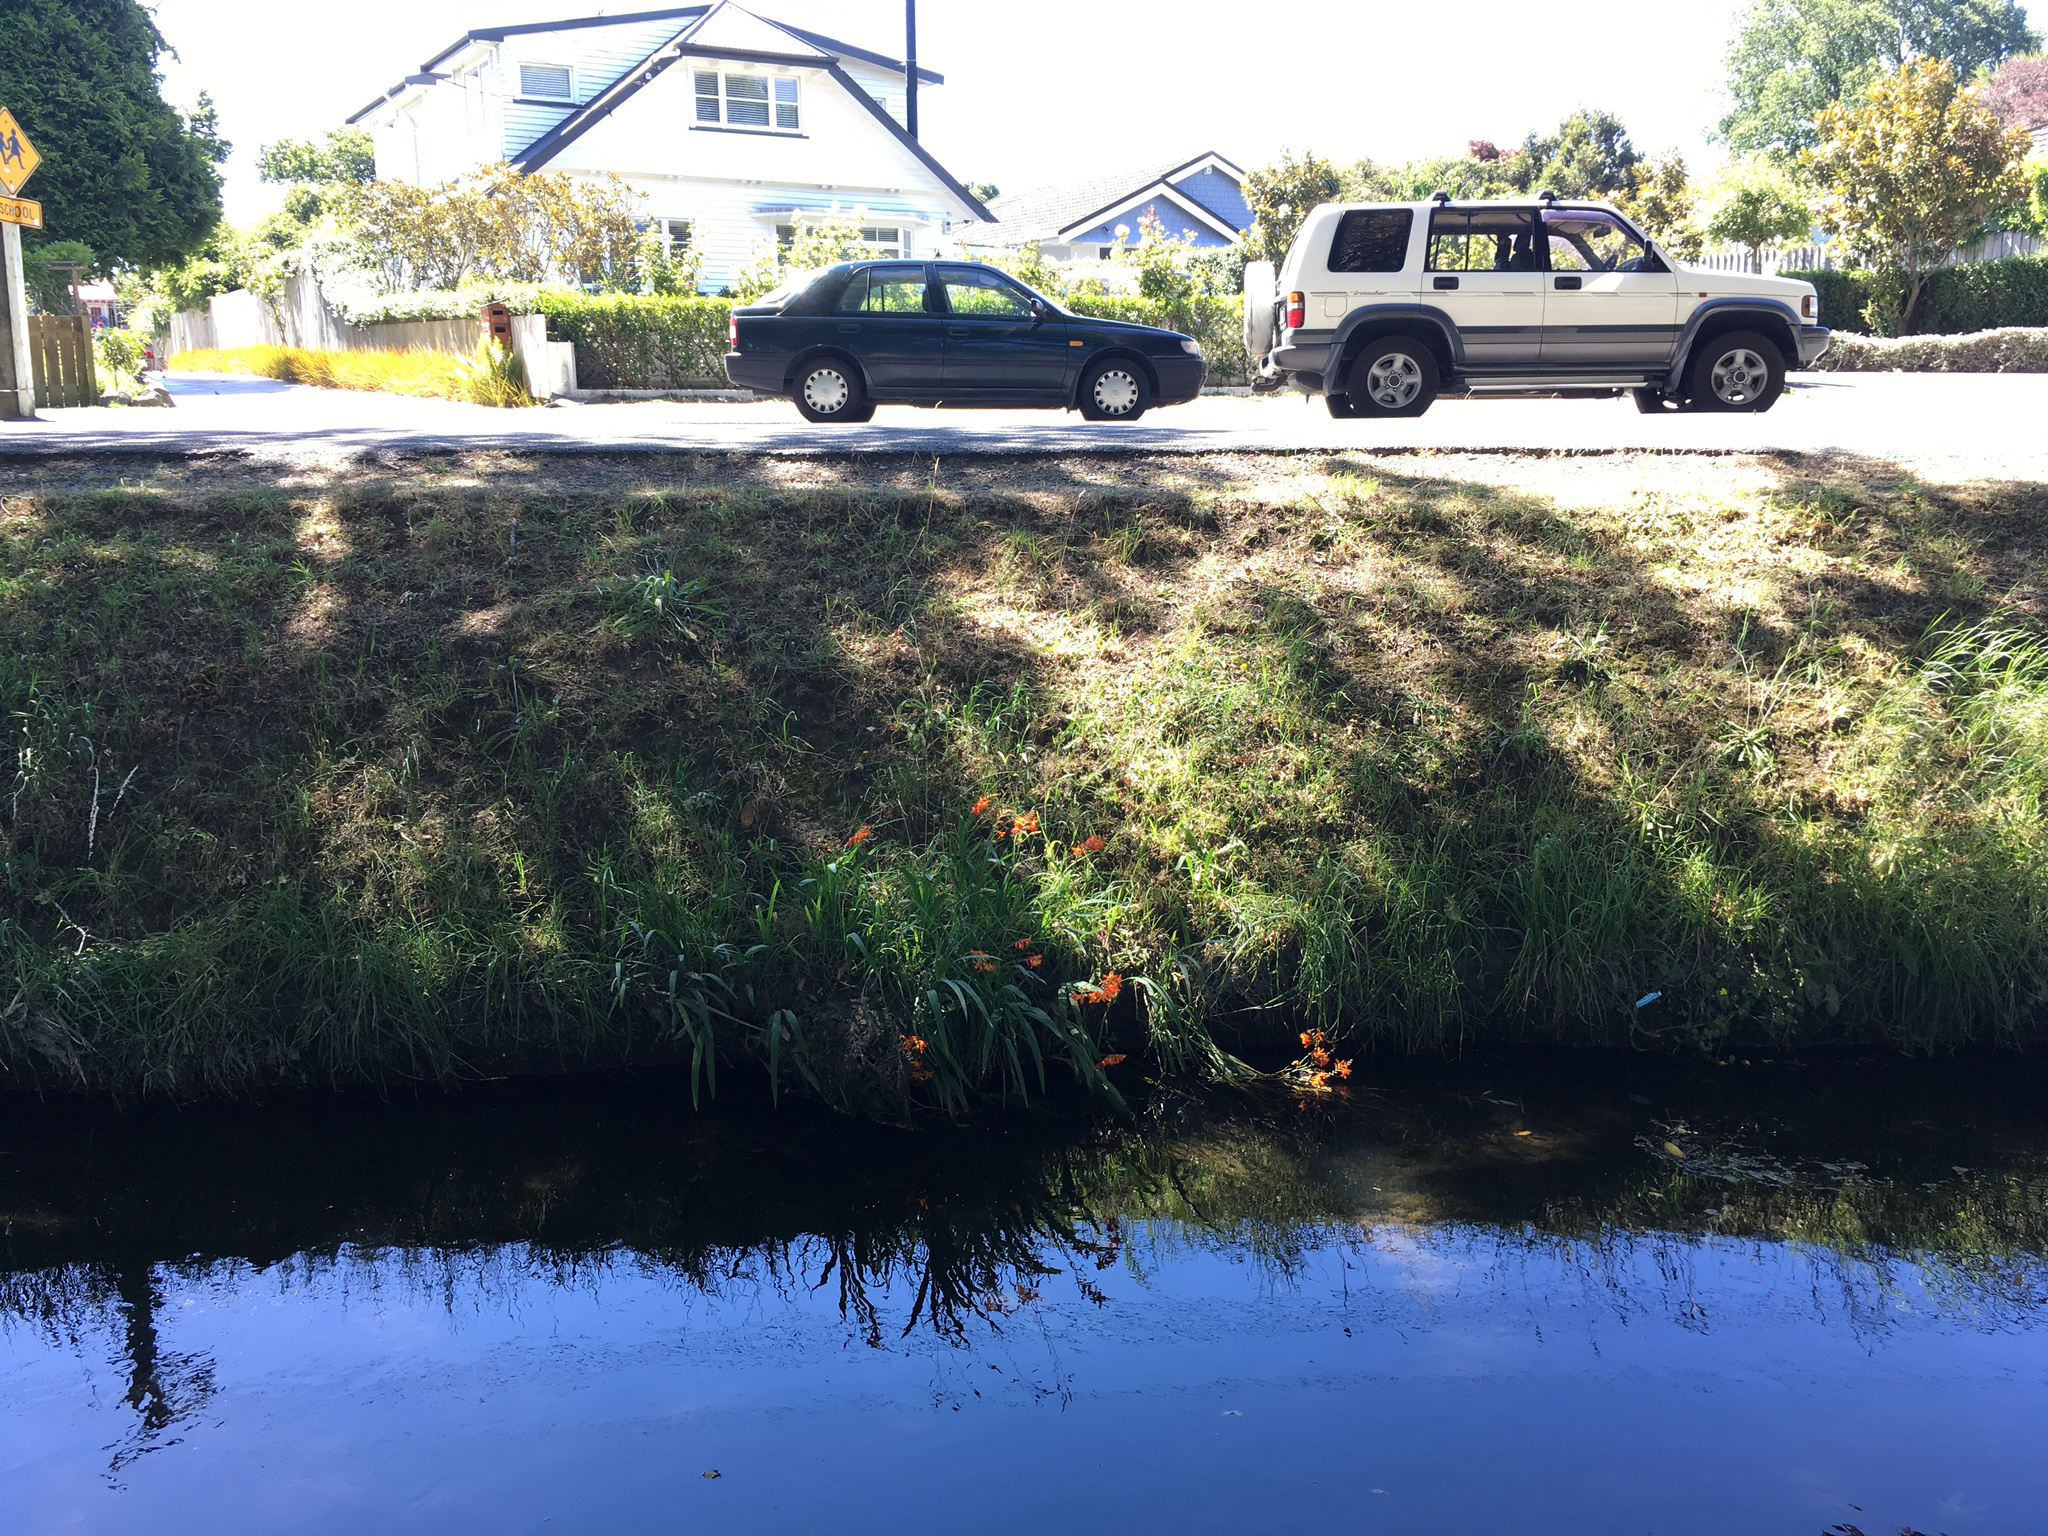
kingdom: Plantae
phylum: Tracheophyta
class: Liliopsida
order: Asparagales
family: Iridaceae
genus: Crocosmia
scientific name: Crocosmia crocosmiiflora
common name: Montbretia
